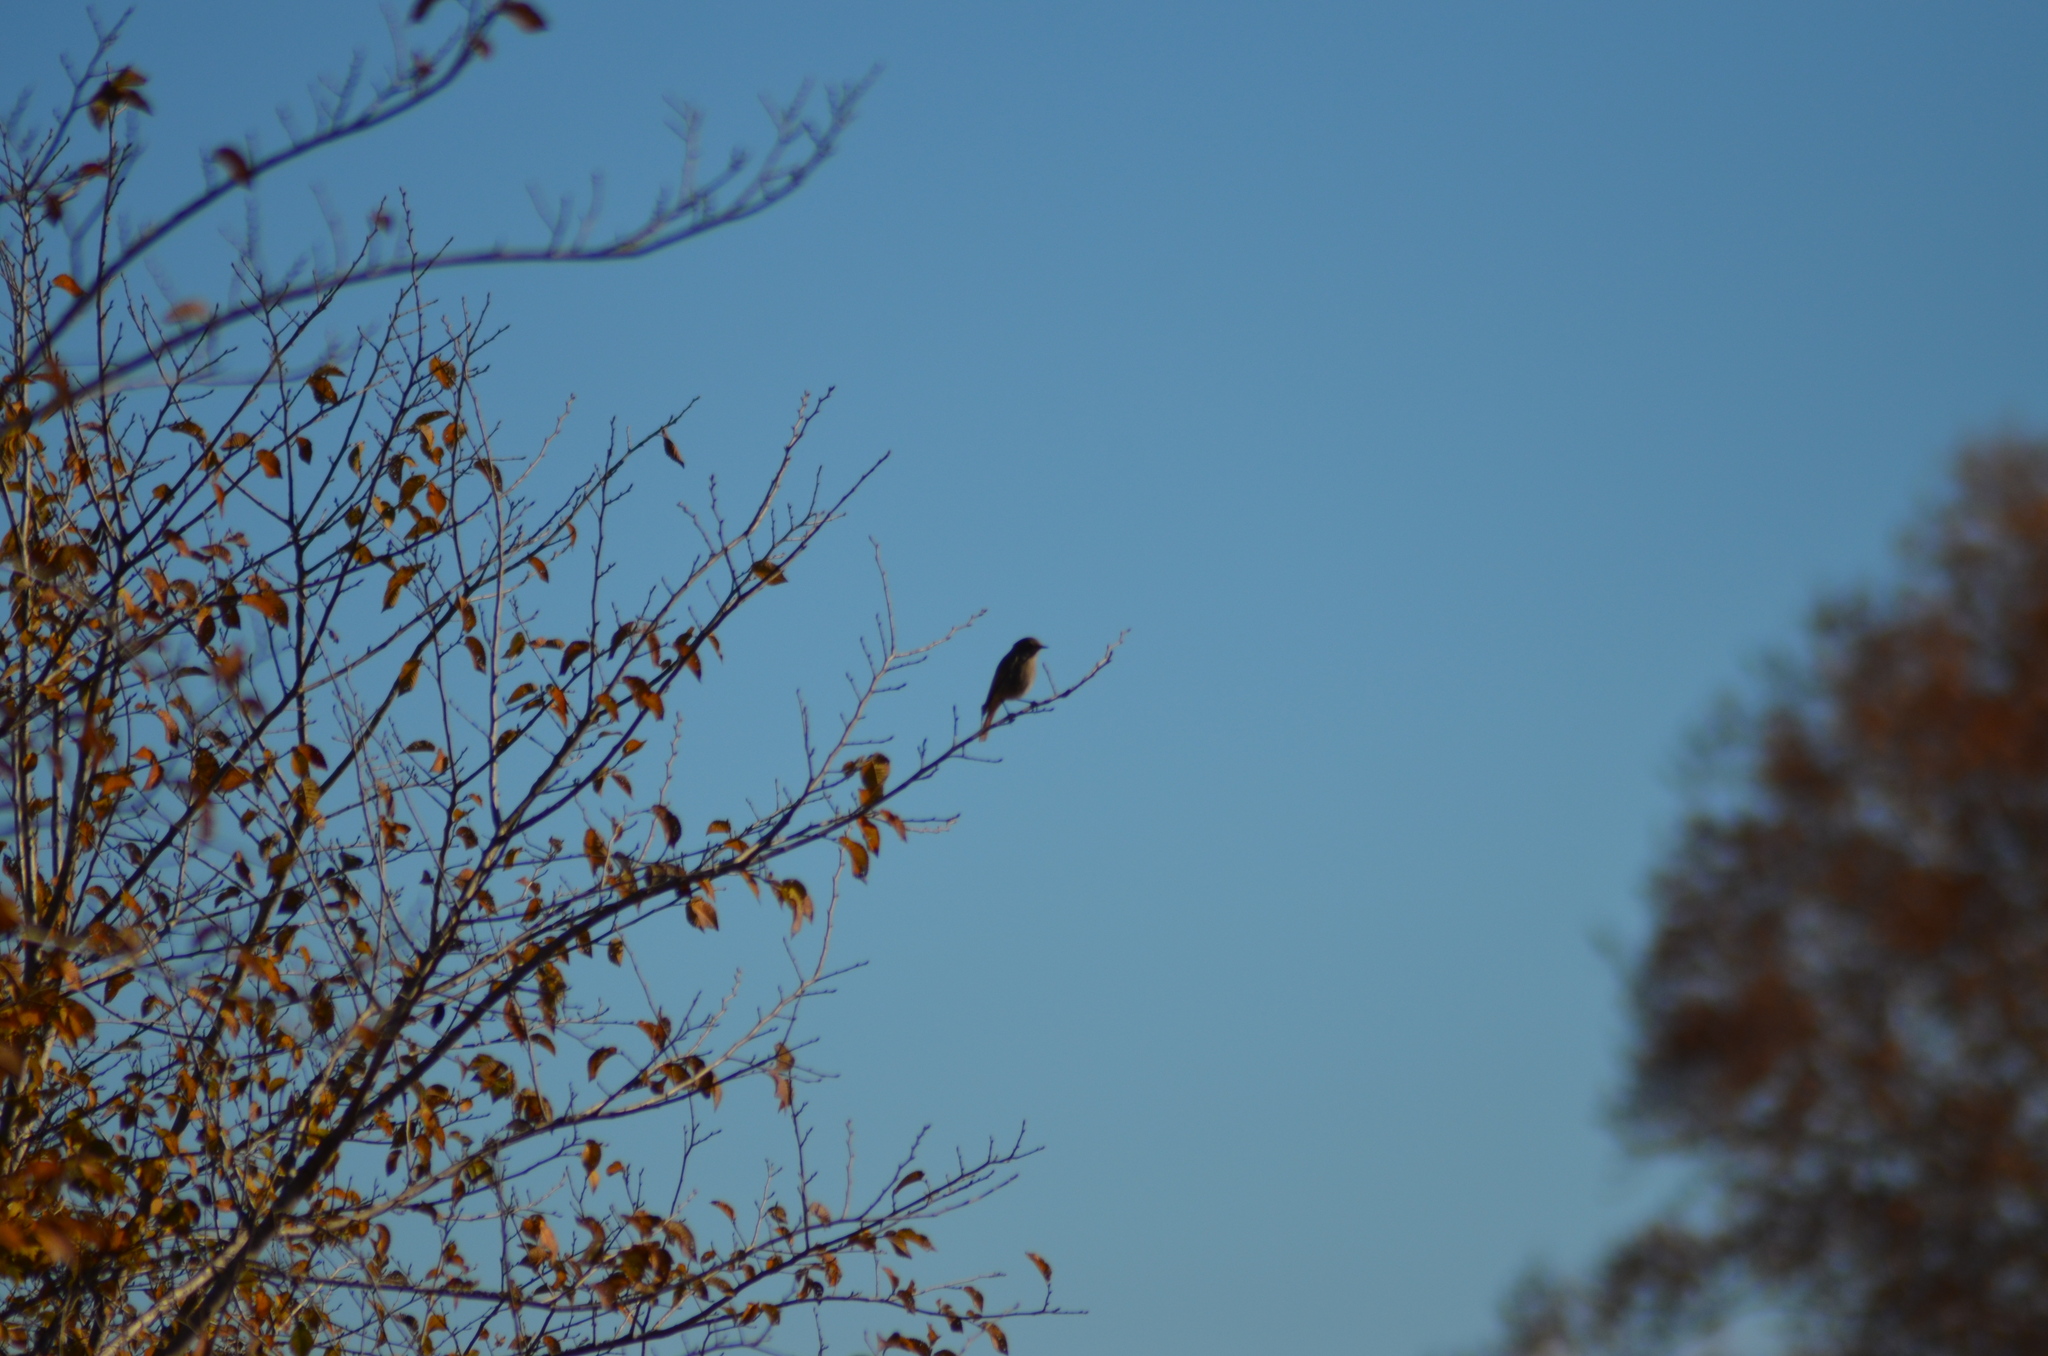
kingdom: Animalia
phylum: Chordata
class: Aves
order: Passeriformes
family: Muscicapidae
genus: Phoenicurus
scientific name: Phoenicurus ochruros
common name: Black redstart
